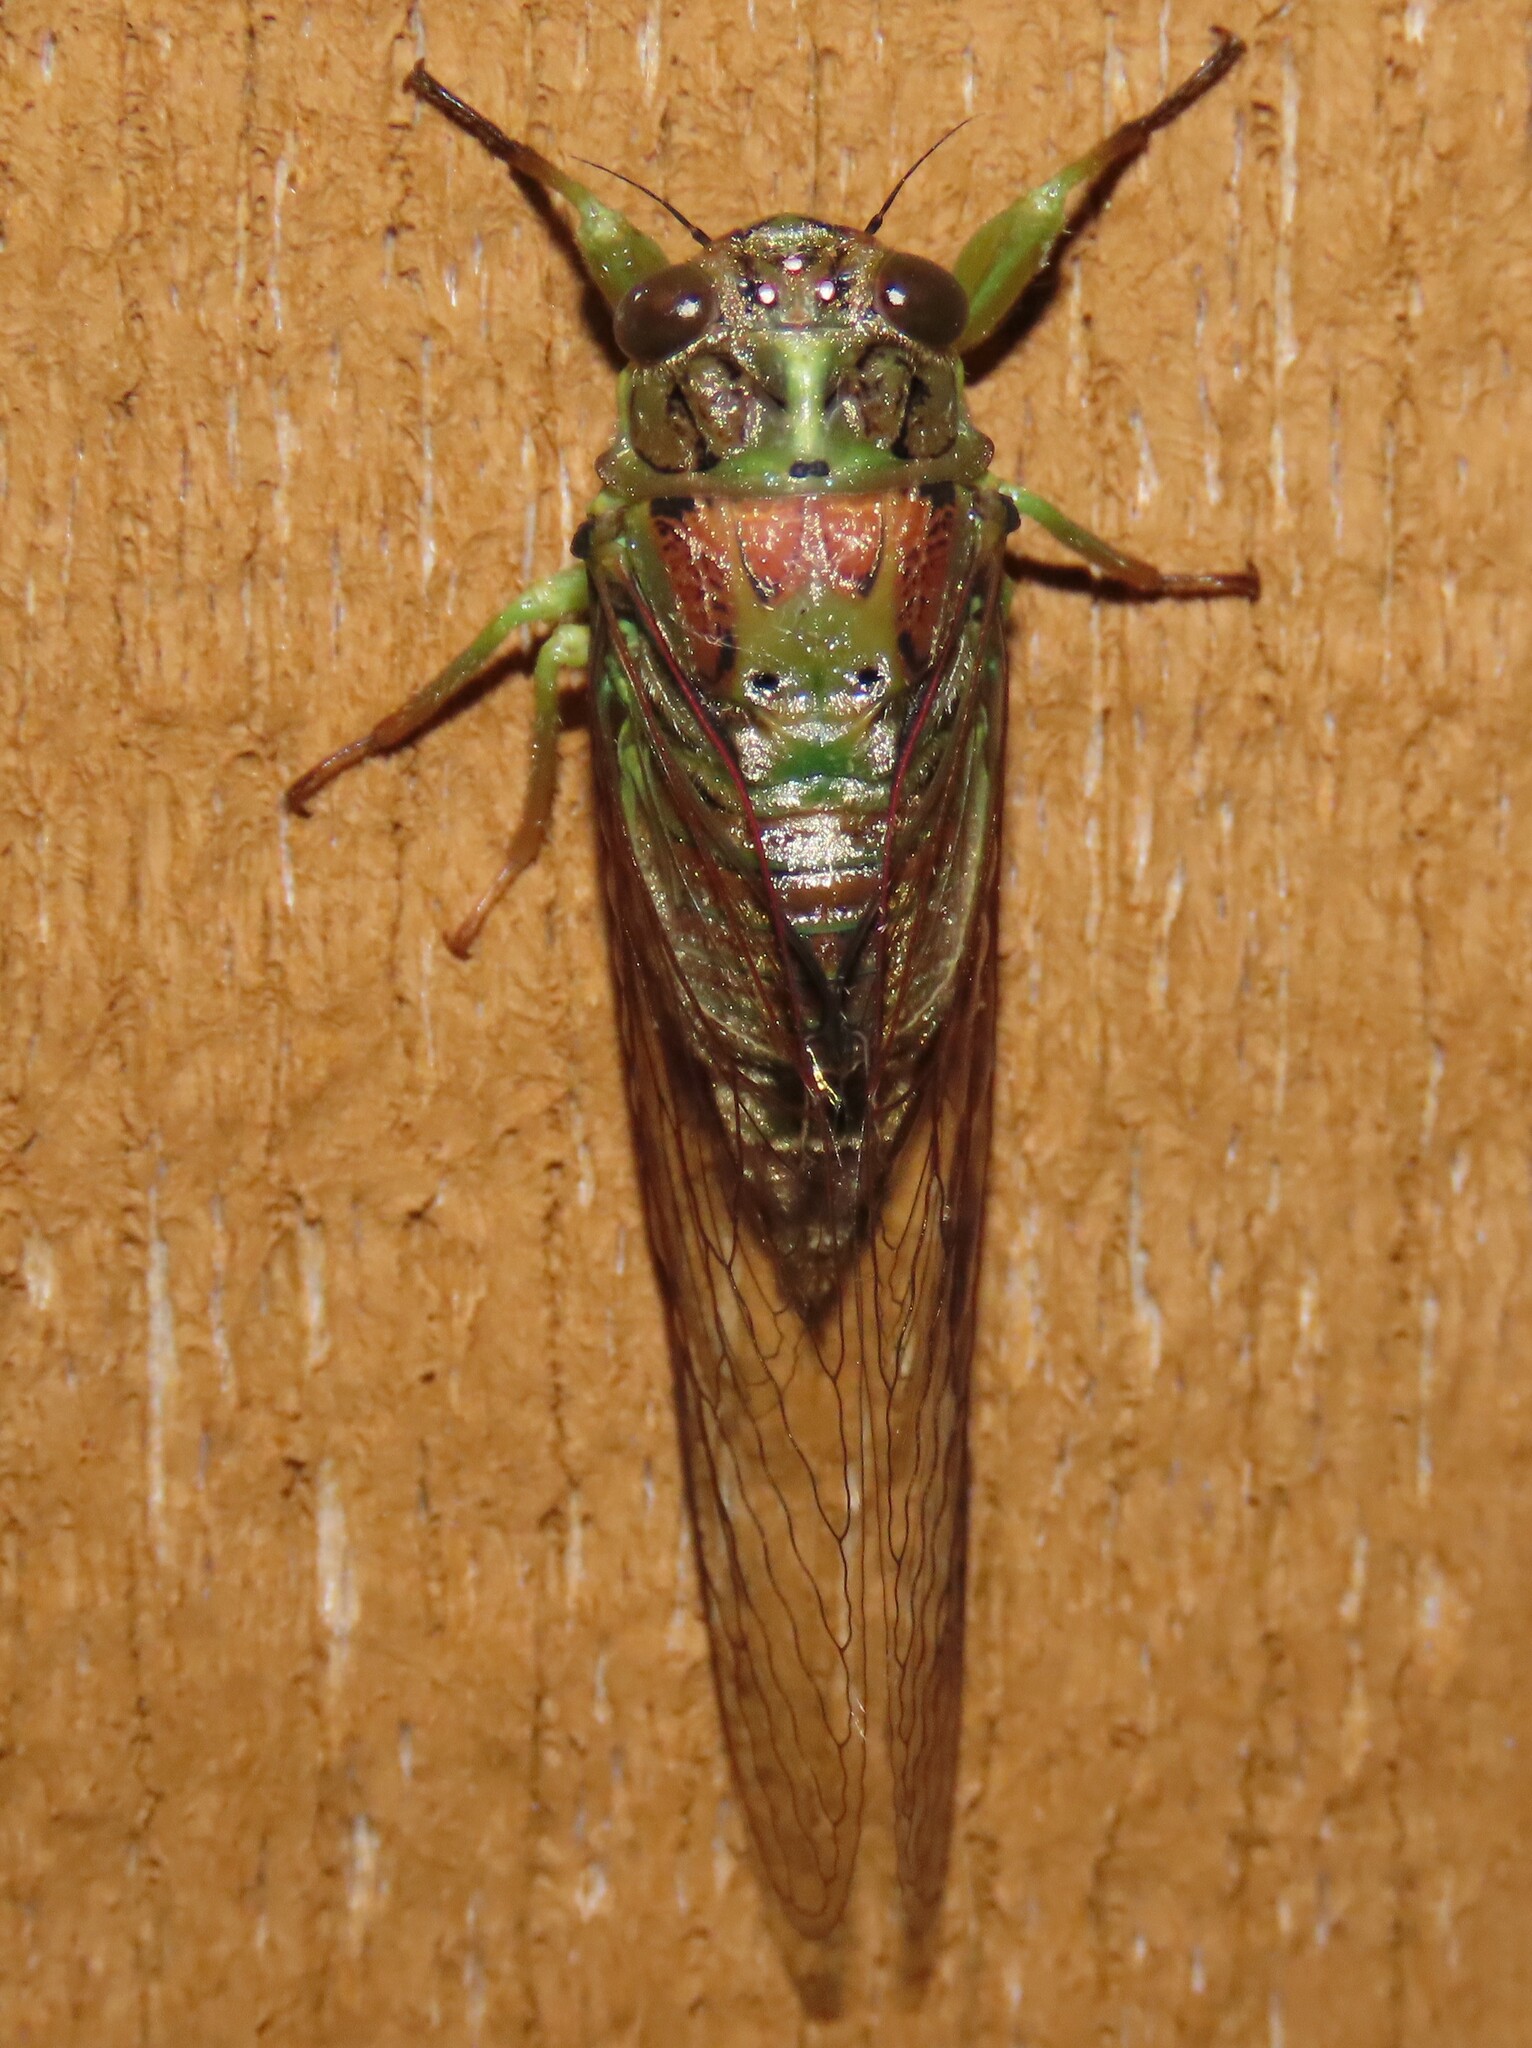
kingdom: Animalia
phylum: Arthropoda
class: Insecta
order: Hemiptera
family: Cicadidae
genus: Kikihia
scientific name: Kikihia scutellaris
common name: Lesser bronze cicada
